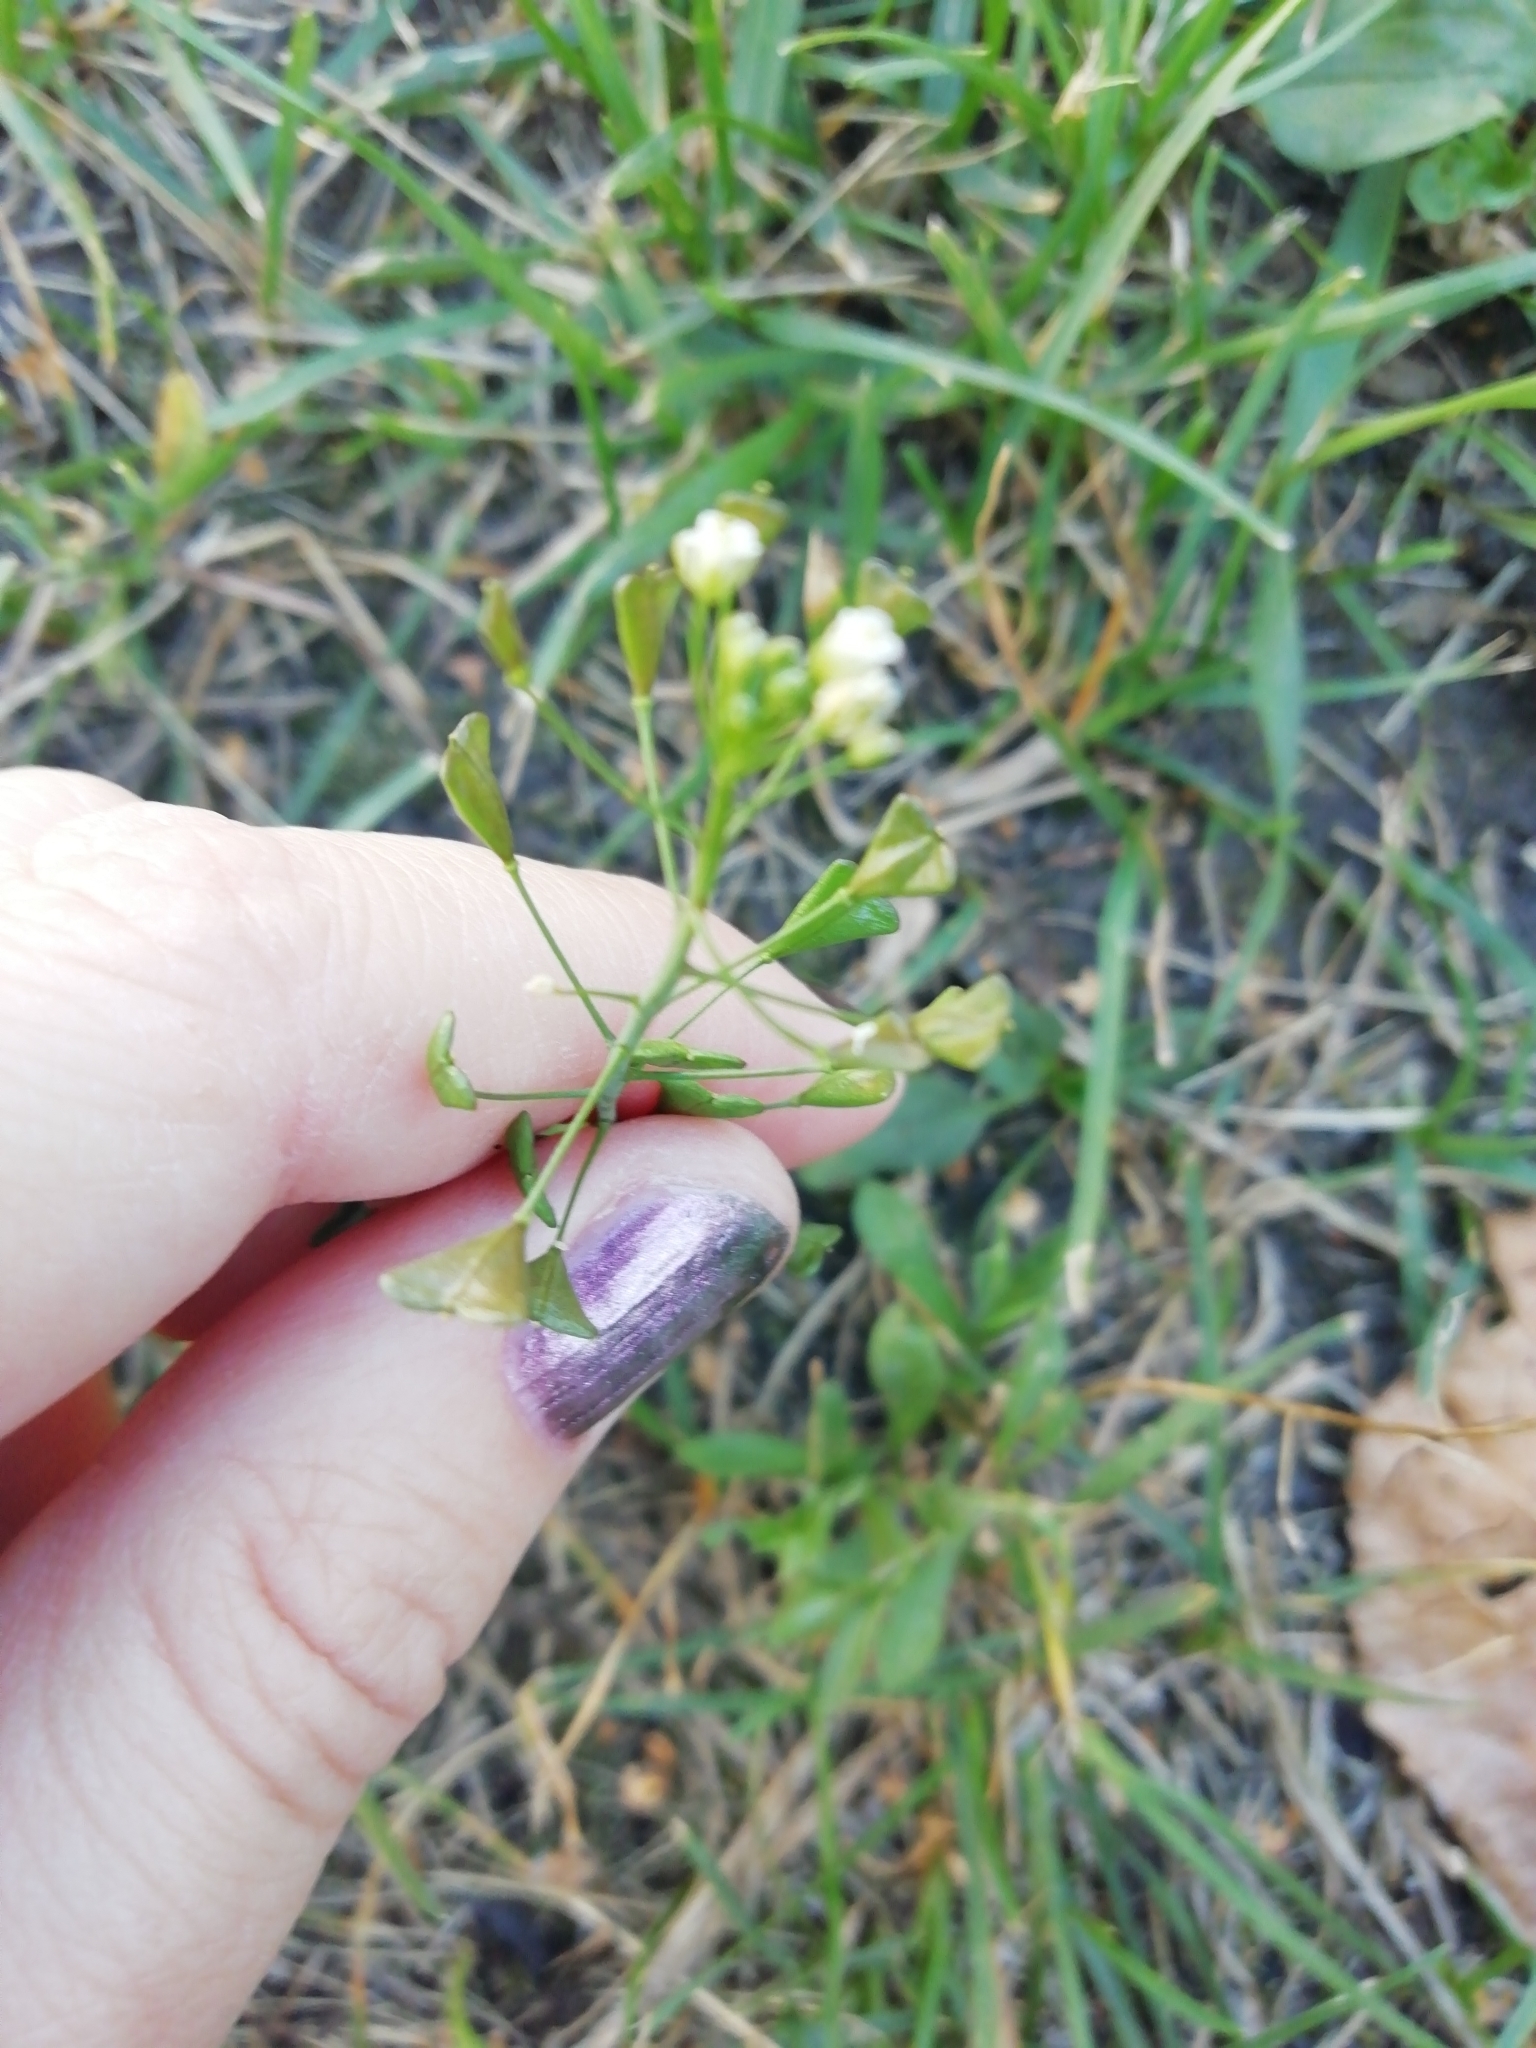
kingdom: Plantae
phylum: Tracheophyta
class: Magnoliopsida
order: Brassicales
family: Brassicaceae
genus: Capsella
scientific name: Capsella bursa-pastoris
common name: Shepherd's purse
